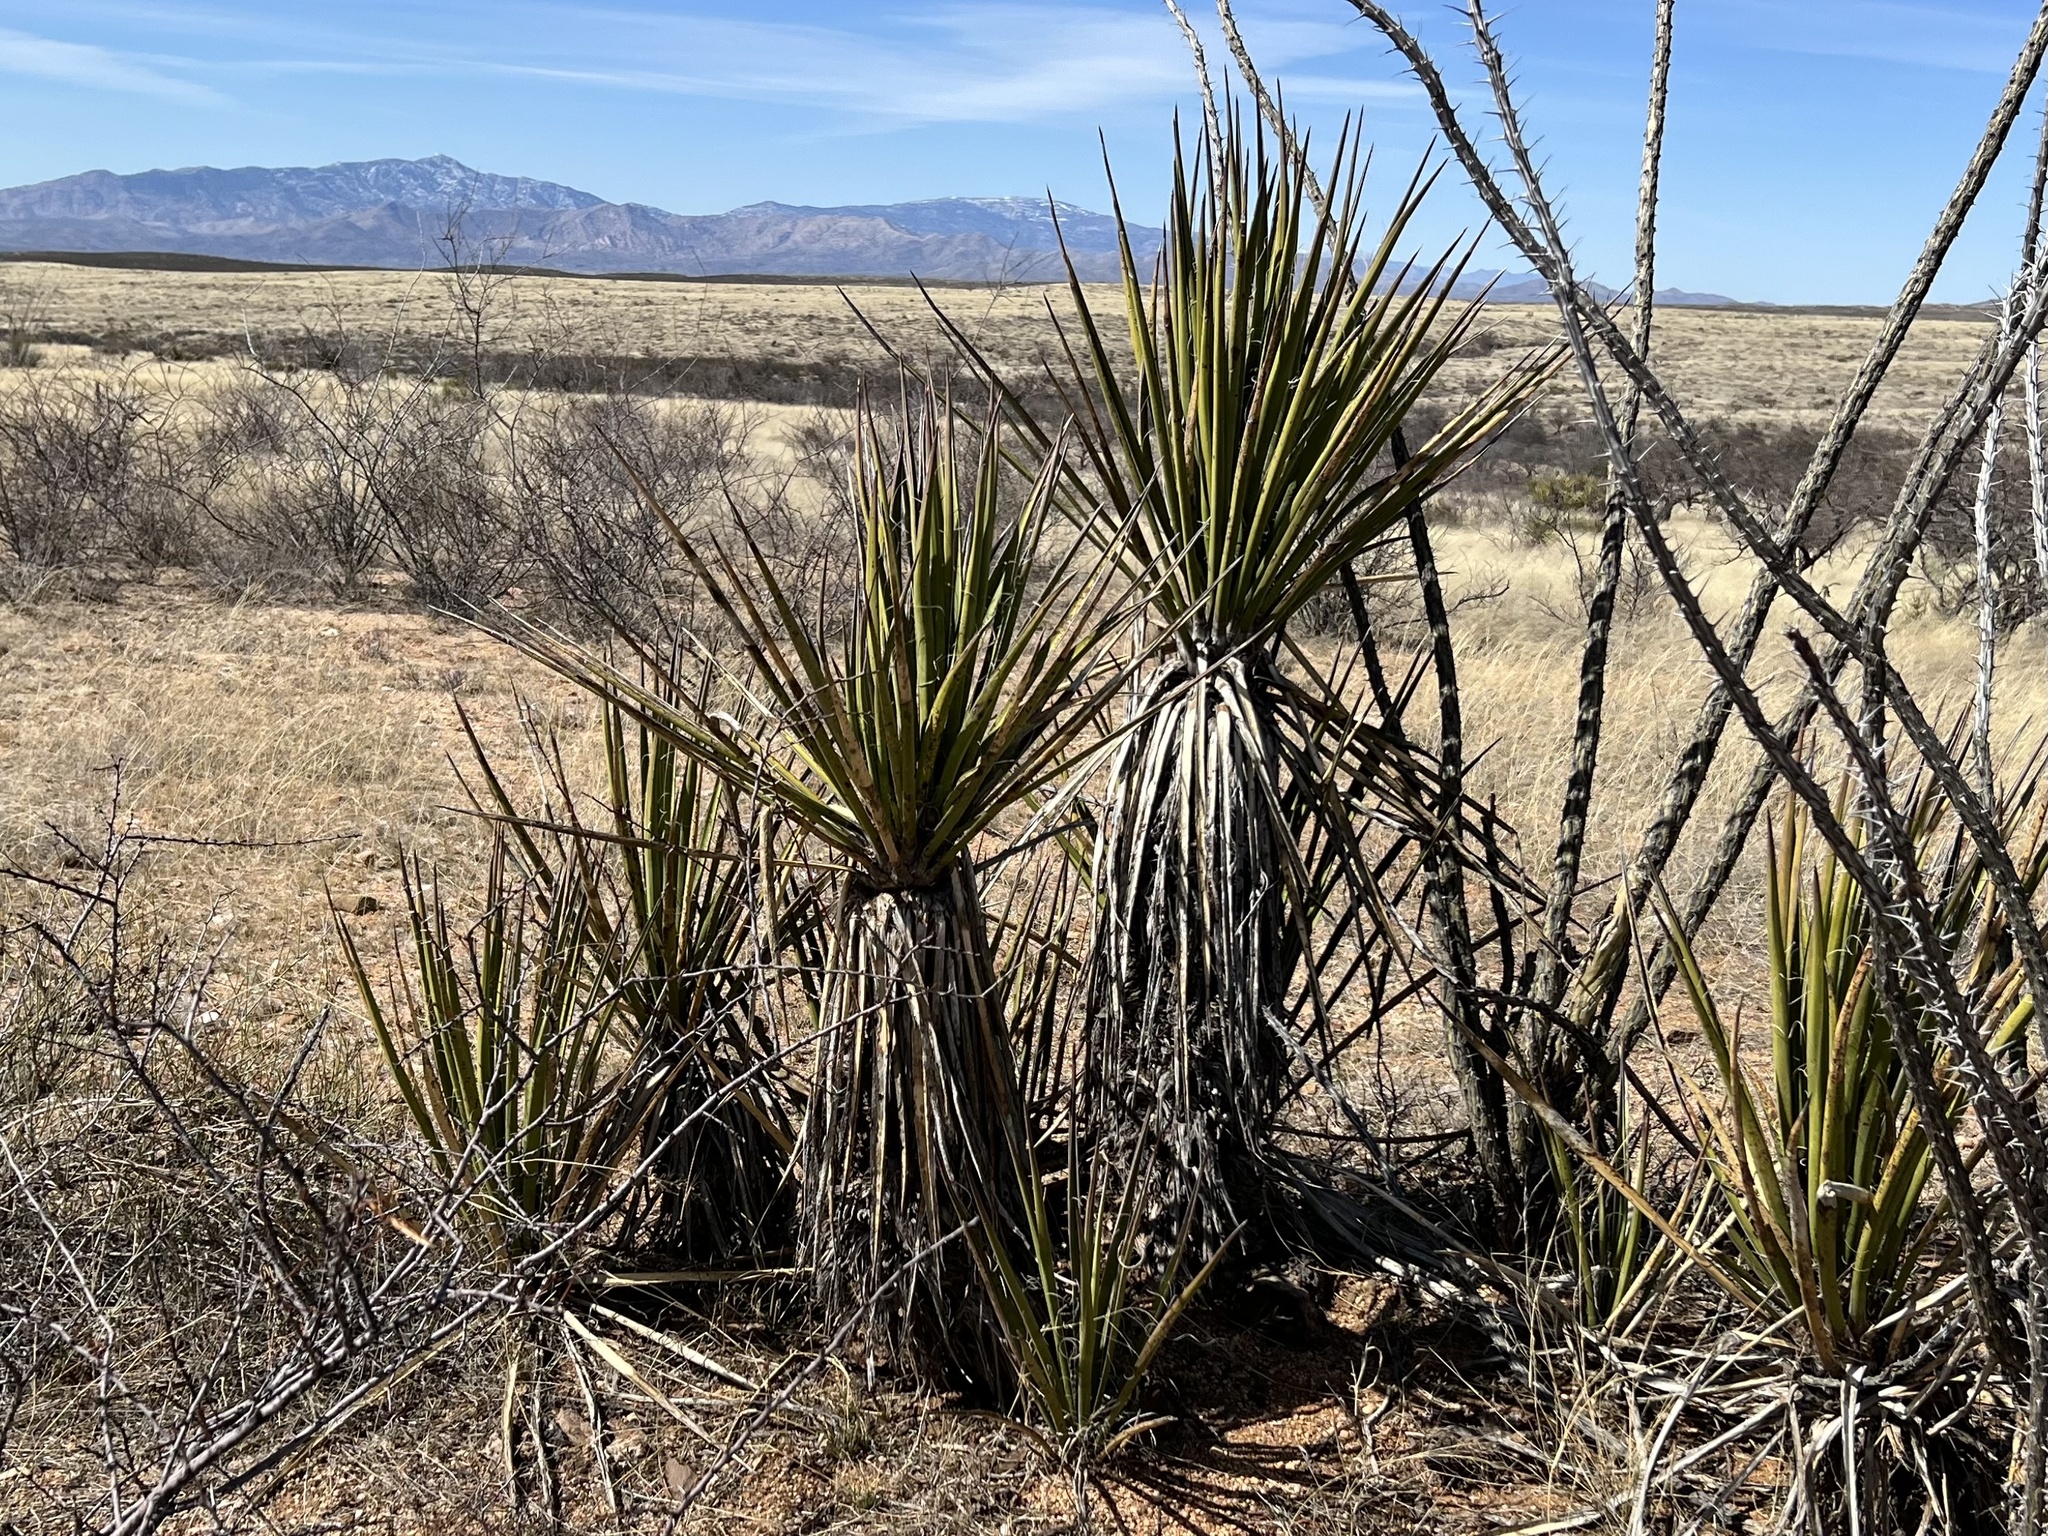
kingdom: Plantae
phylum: Tracheophyta
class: Liliopsida
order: Asparagales
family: Asparagaceae
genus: Yucca
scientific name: Yucca baccata
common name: Banana yucca
